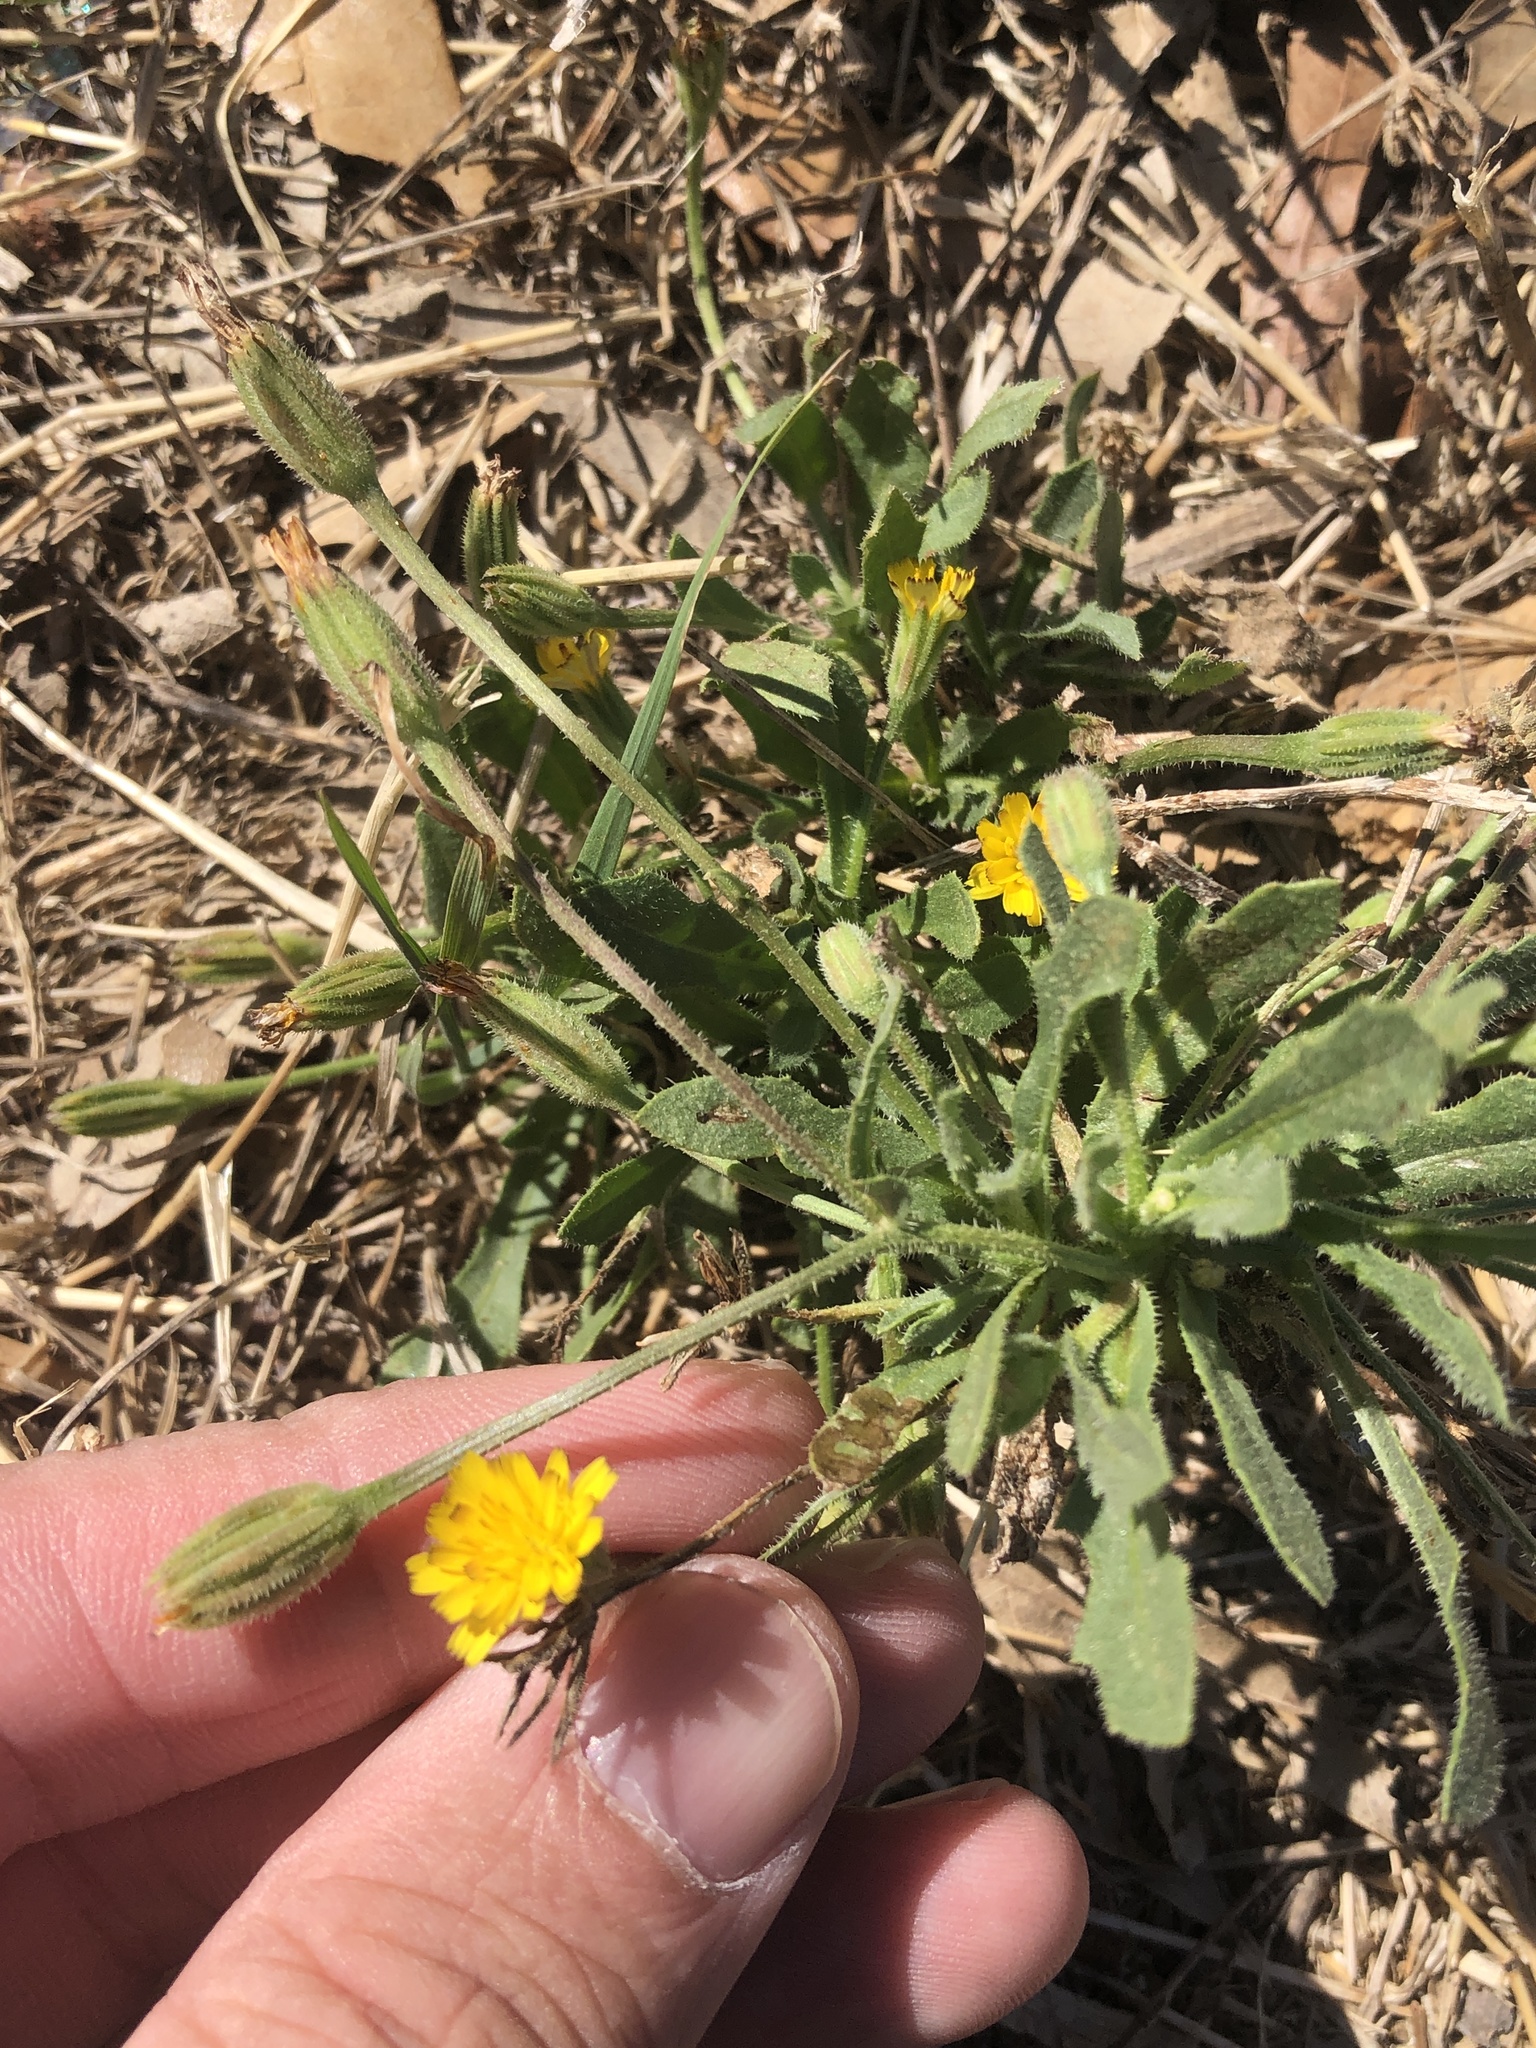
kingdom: Plantae
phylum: Tracheophyta
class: Magnoliopsida
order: Asterales
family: Asteraceae
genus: Hedypnois
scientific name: Hedypnois rhagadioloides
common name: Cretan weed
